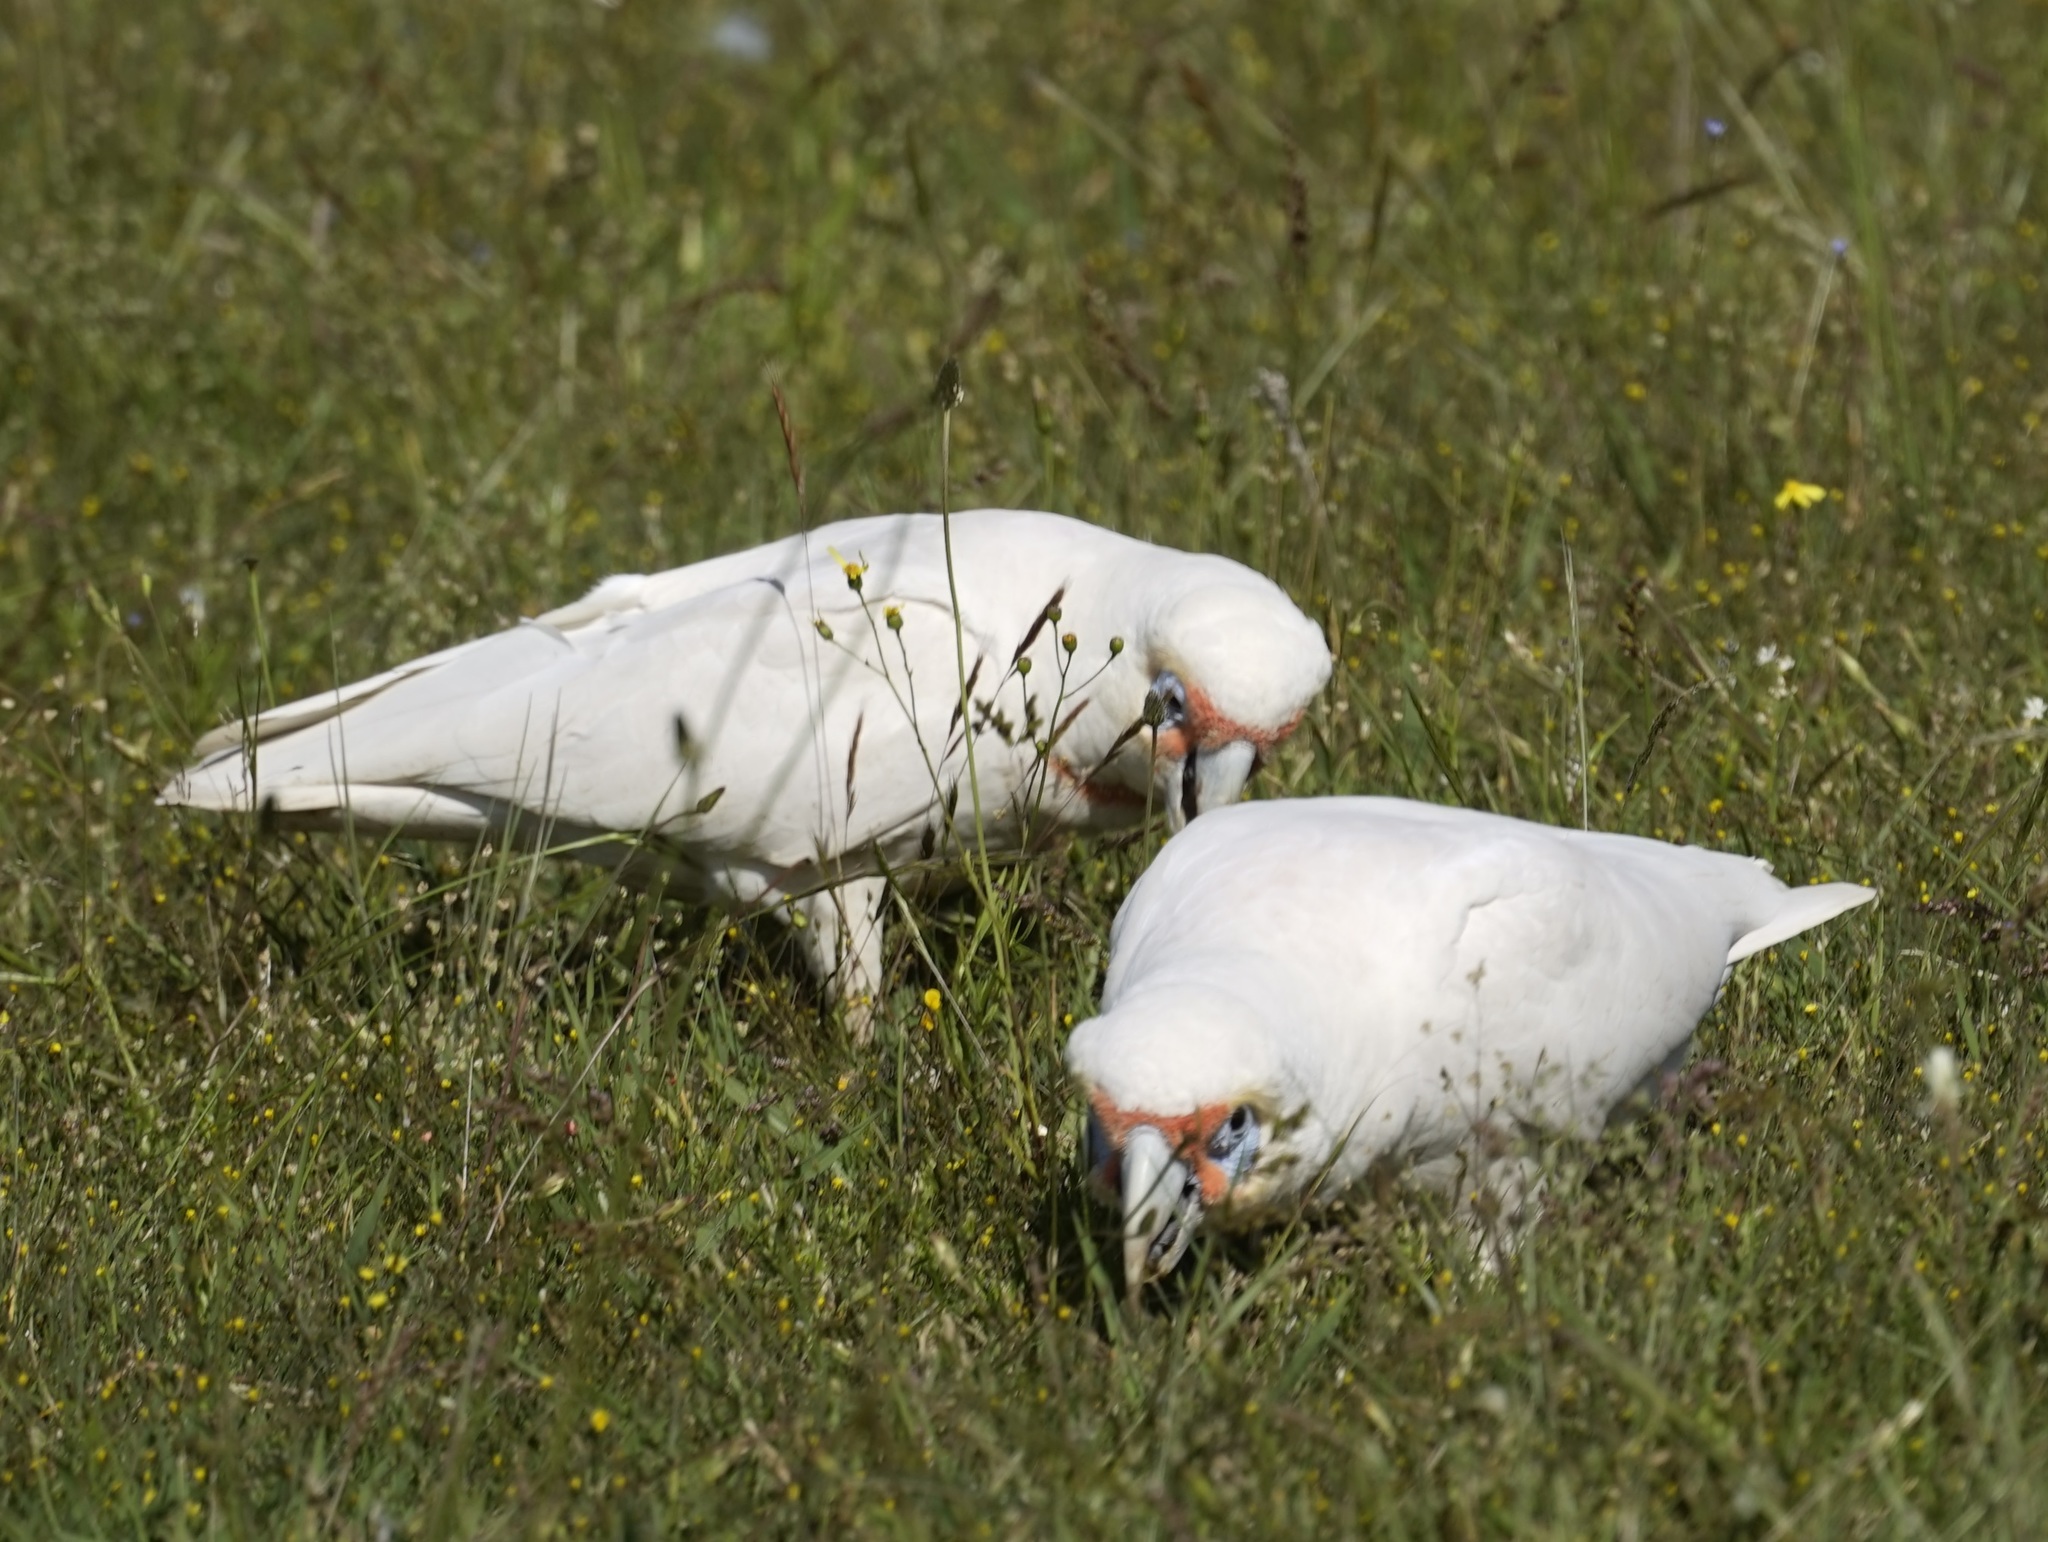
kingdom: Animalia
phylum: Chordata
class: Aves
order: Psittaciformes
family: Psittacidae
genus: Cacatua
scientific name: Cacatua tenuirostris
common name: Long-billed corella
